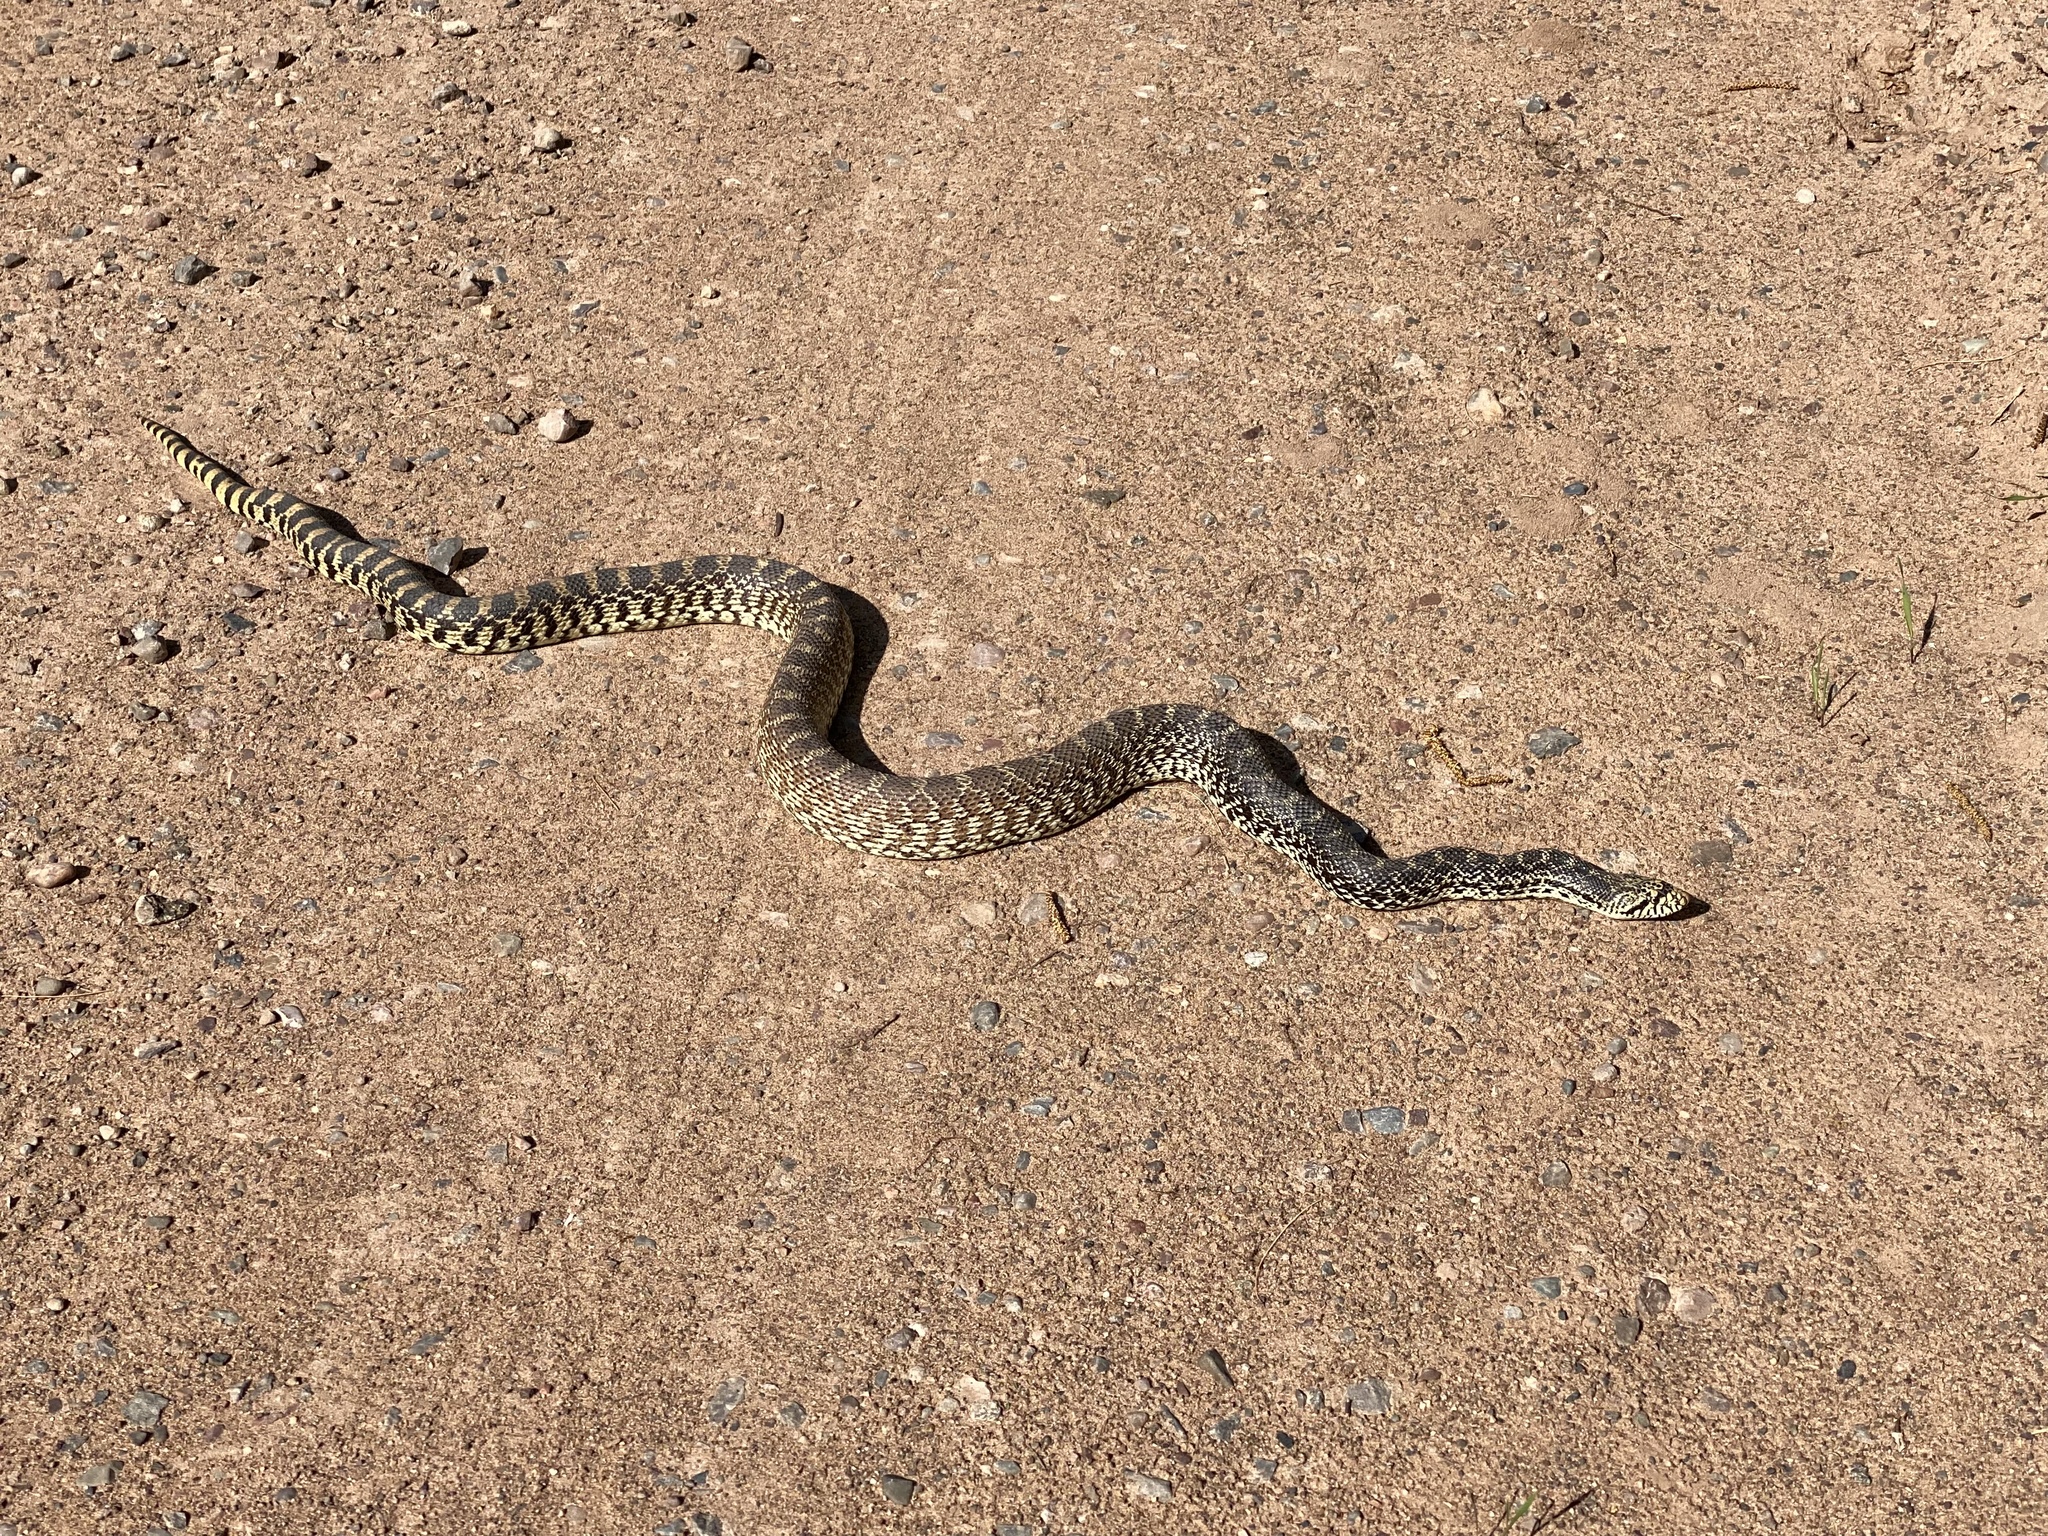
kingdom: Animalia
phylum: Chordata
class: Squamata
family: Colubridae
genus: Pituophis
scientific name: Pituophis catenifer
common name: Gopher snake
